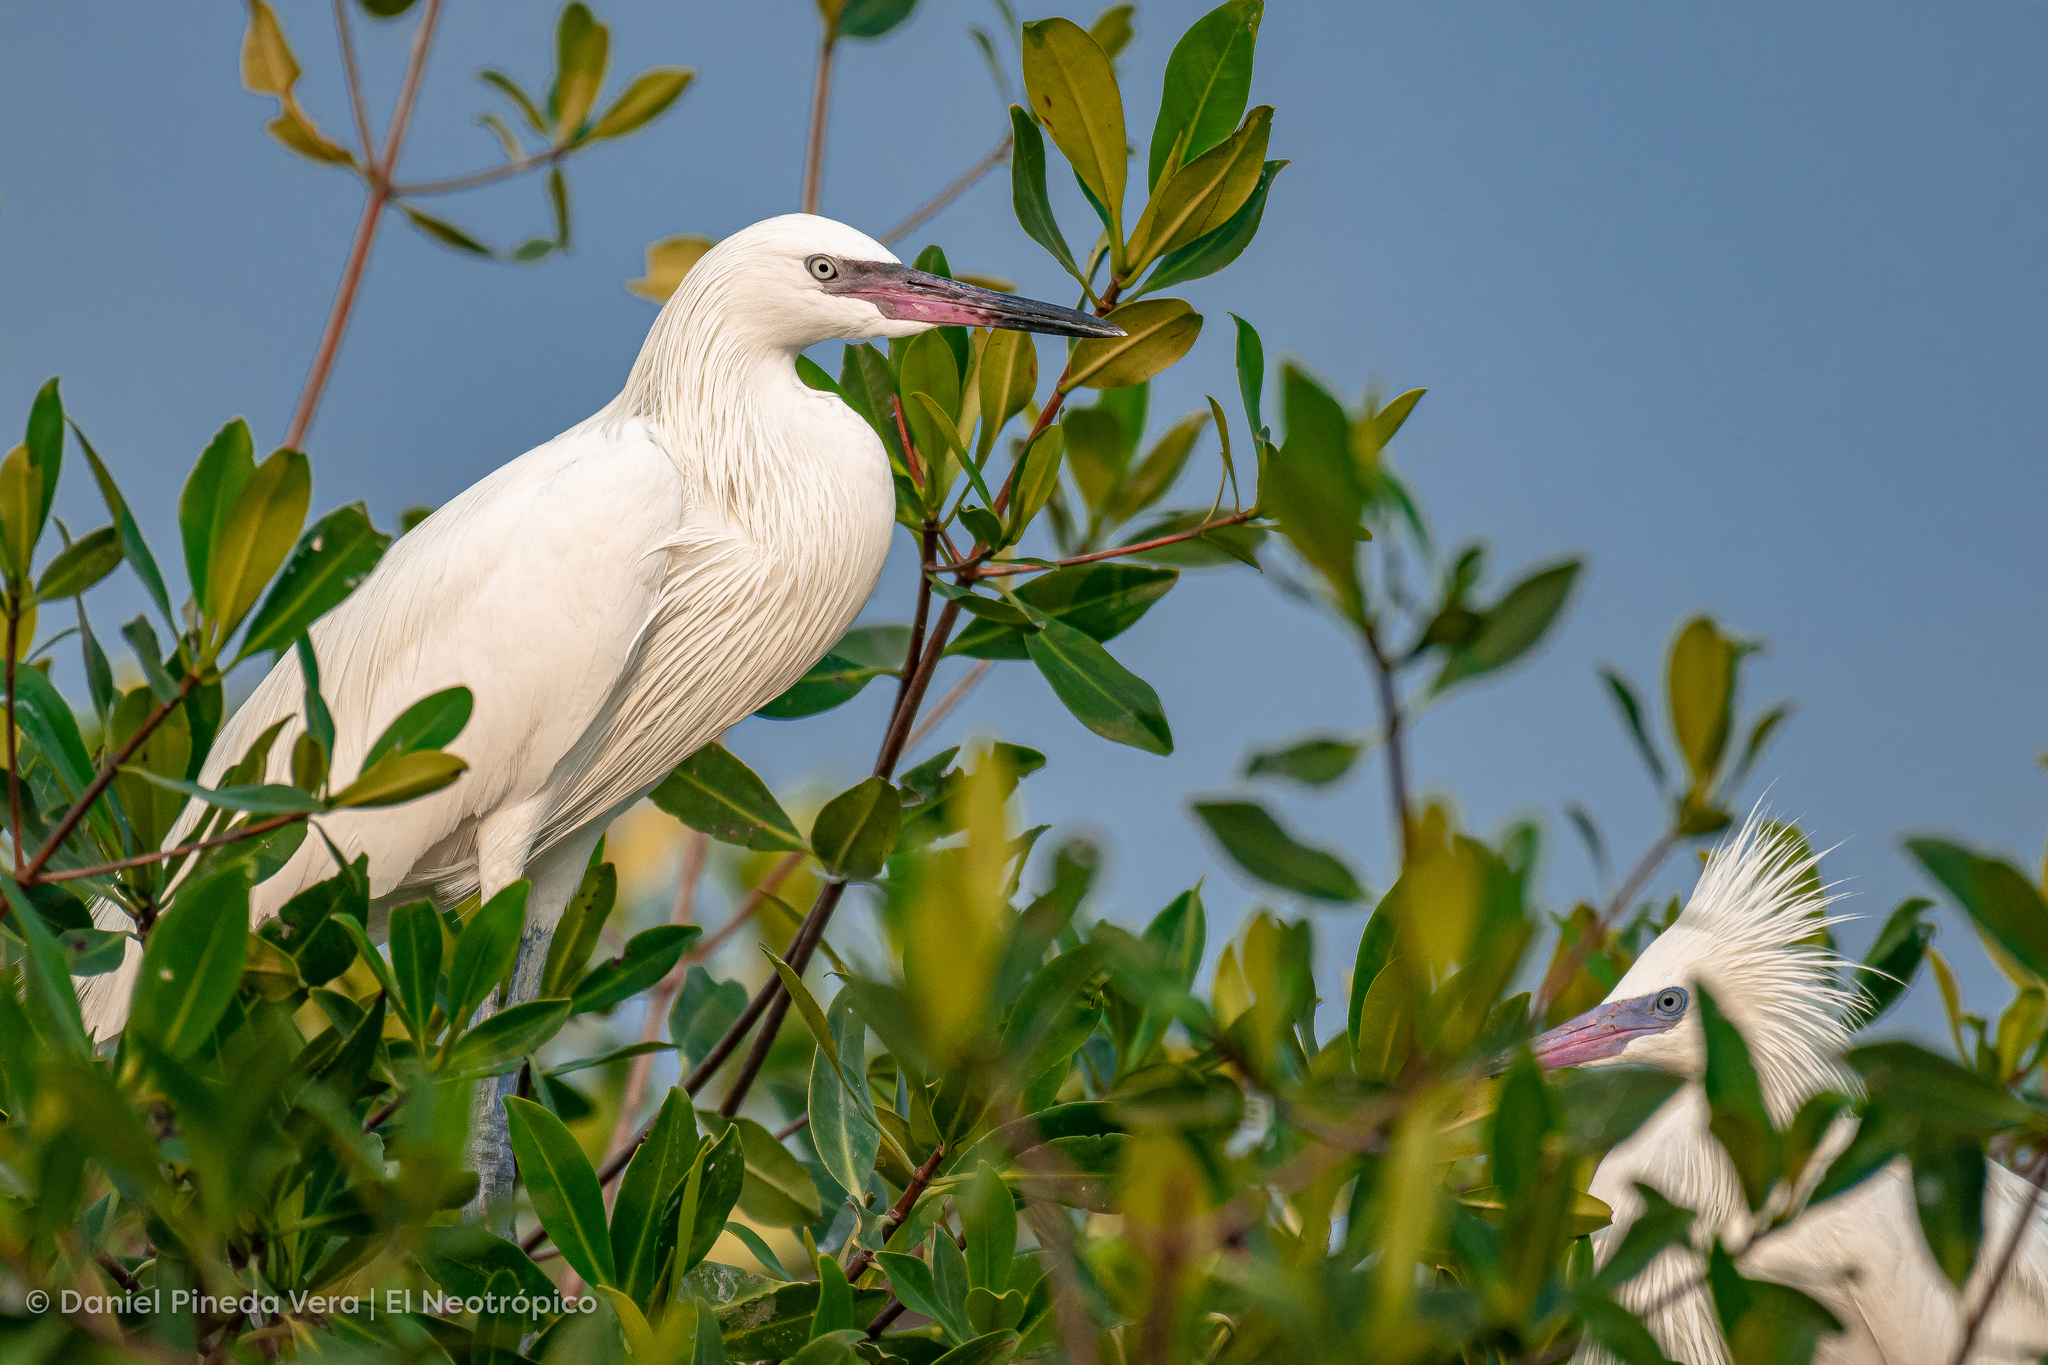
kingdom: Animalia
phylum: Chordata
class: Aves
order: Pelecaniformes
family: Ardeidae
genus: Egretta
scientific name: Egretta rufescens
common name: Reddish egret
